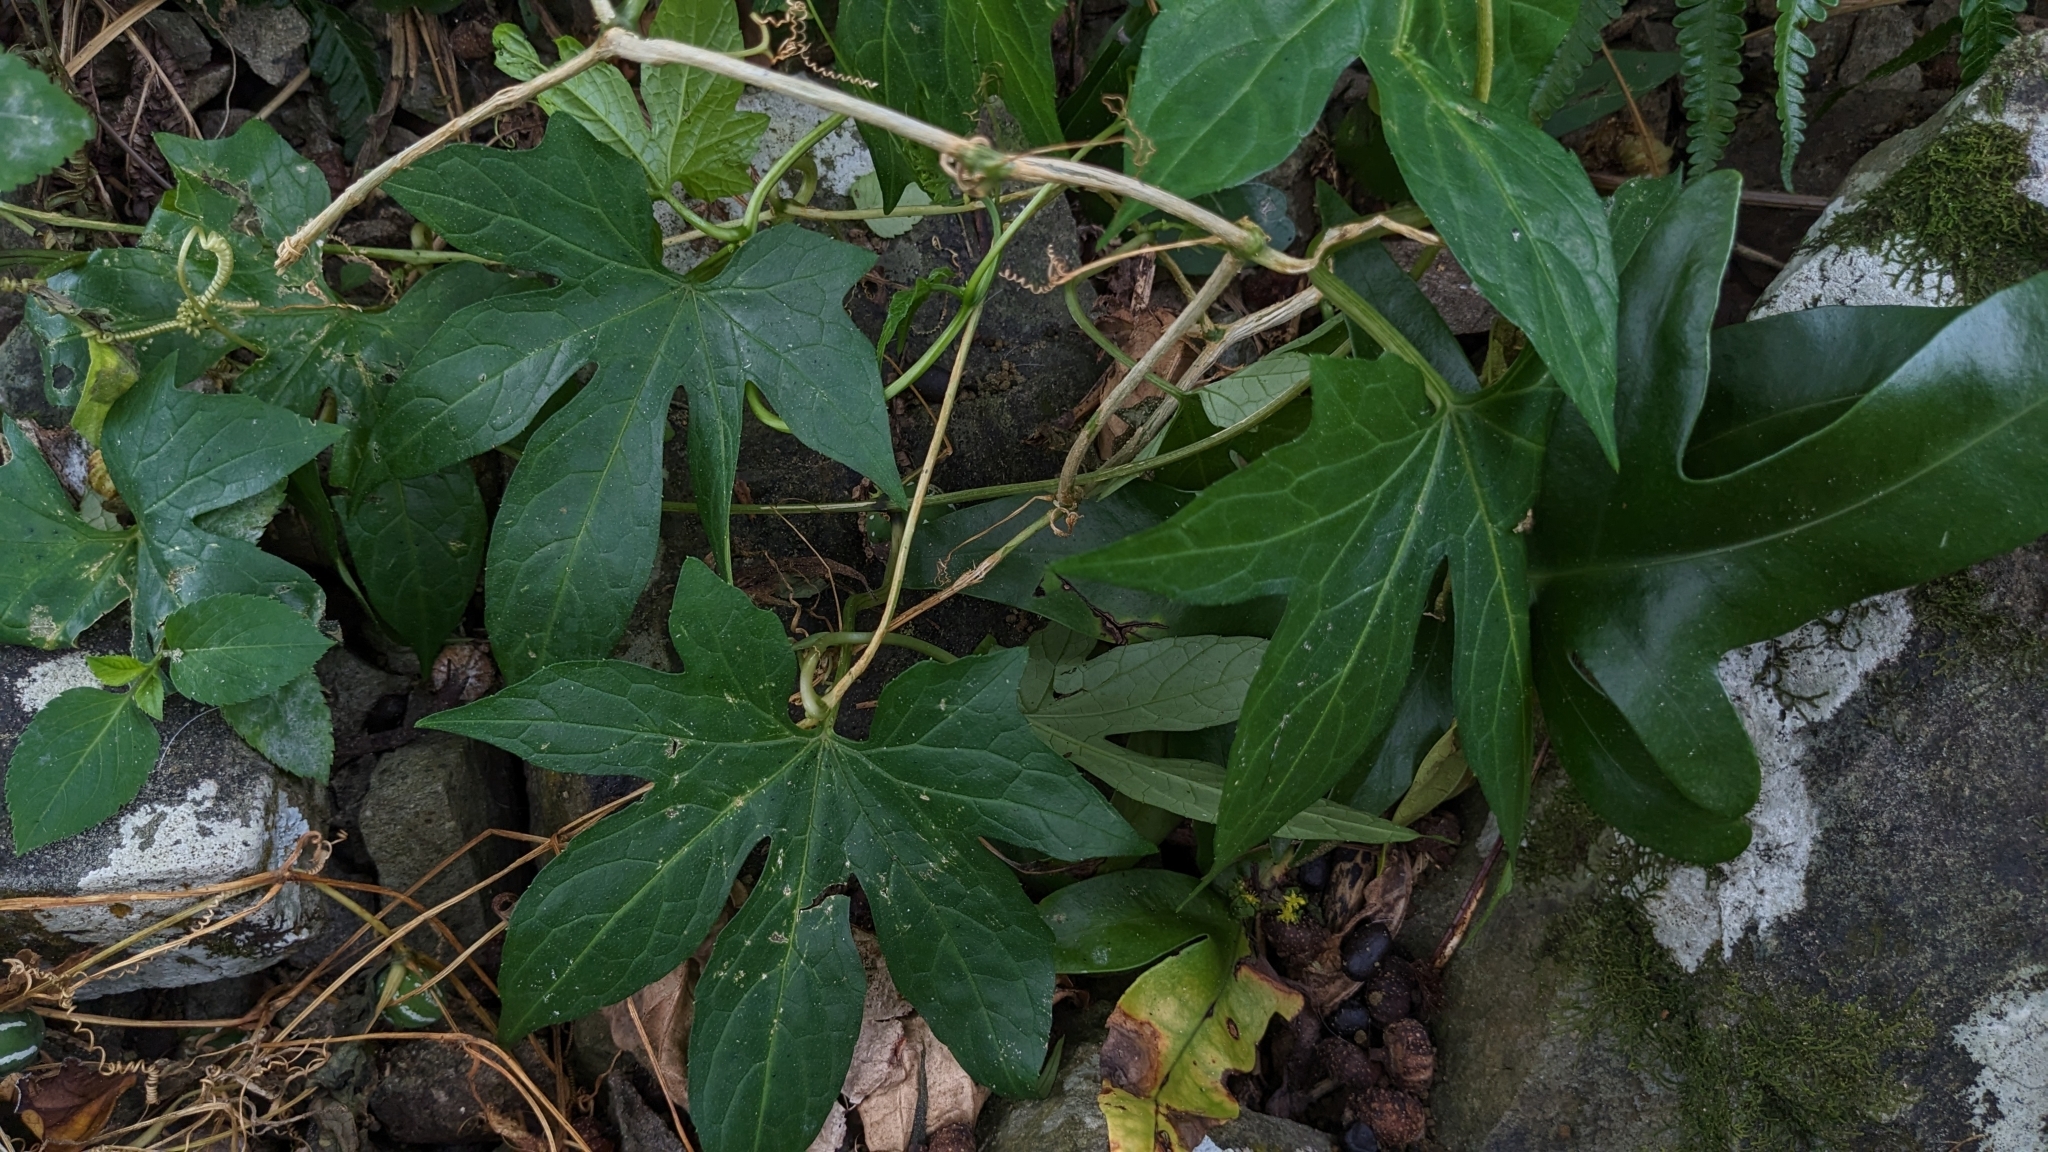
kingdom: Plantae
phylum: Tracheophyta
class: Magnoliopsida
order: Cucurbitales
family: Cucurbitaceae
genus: Diplocyclos
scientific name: Diplocyclos palmatus
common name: Striped-cucumber
